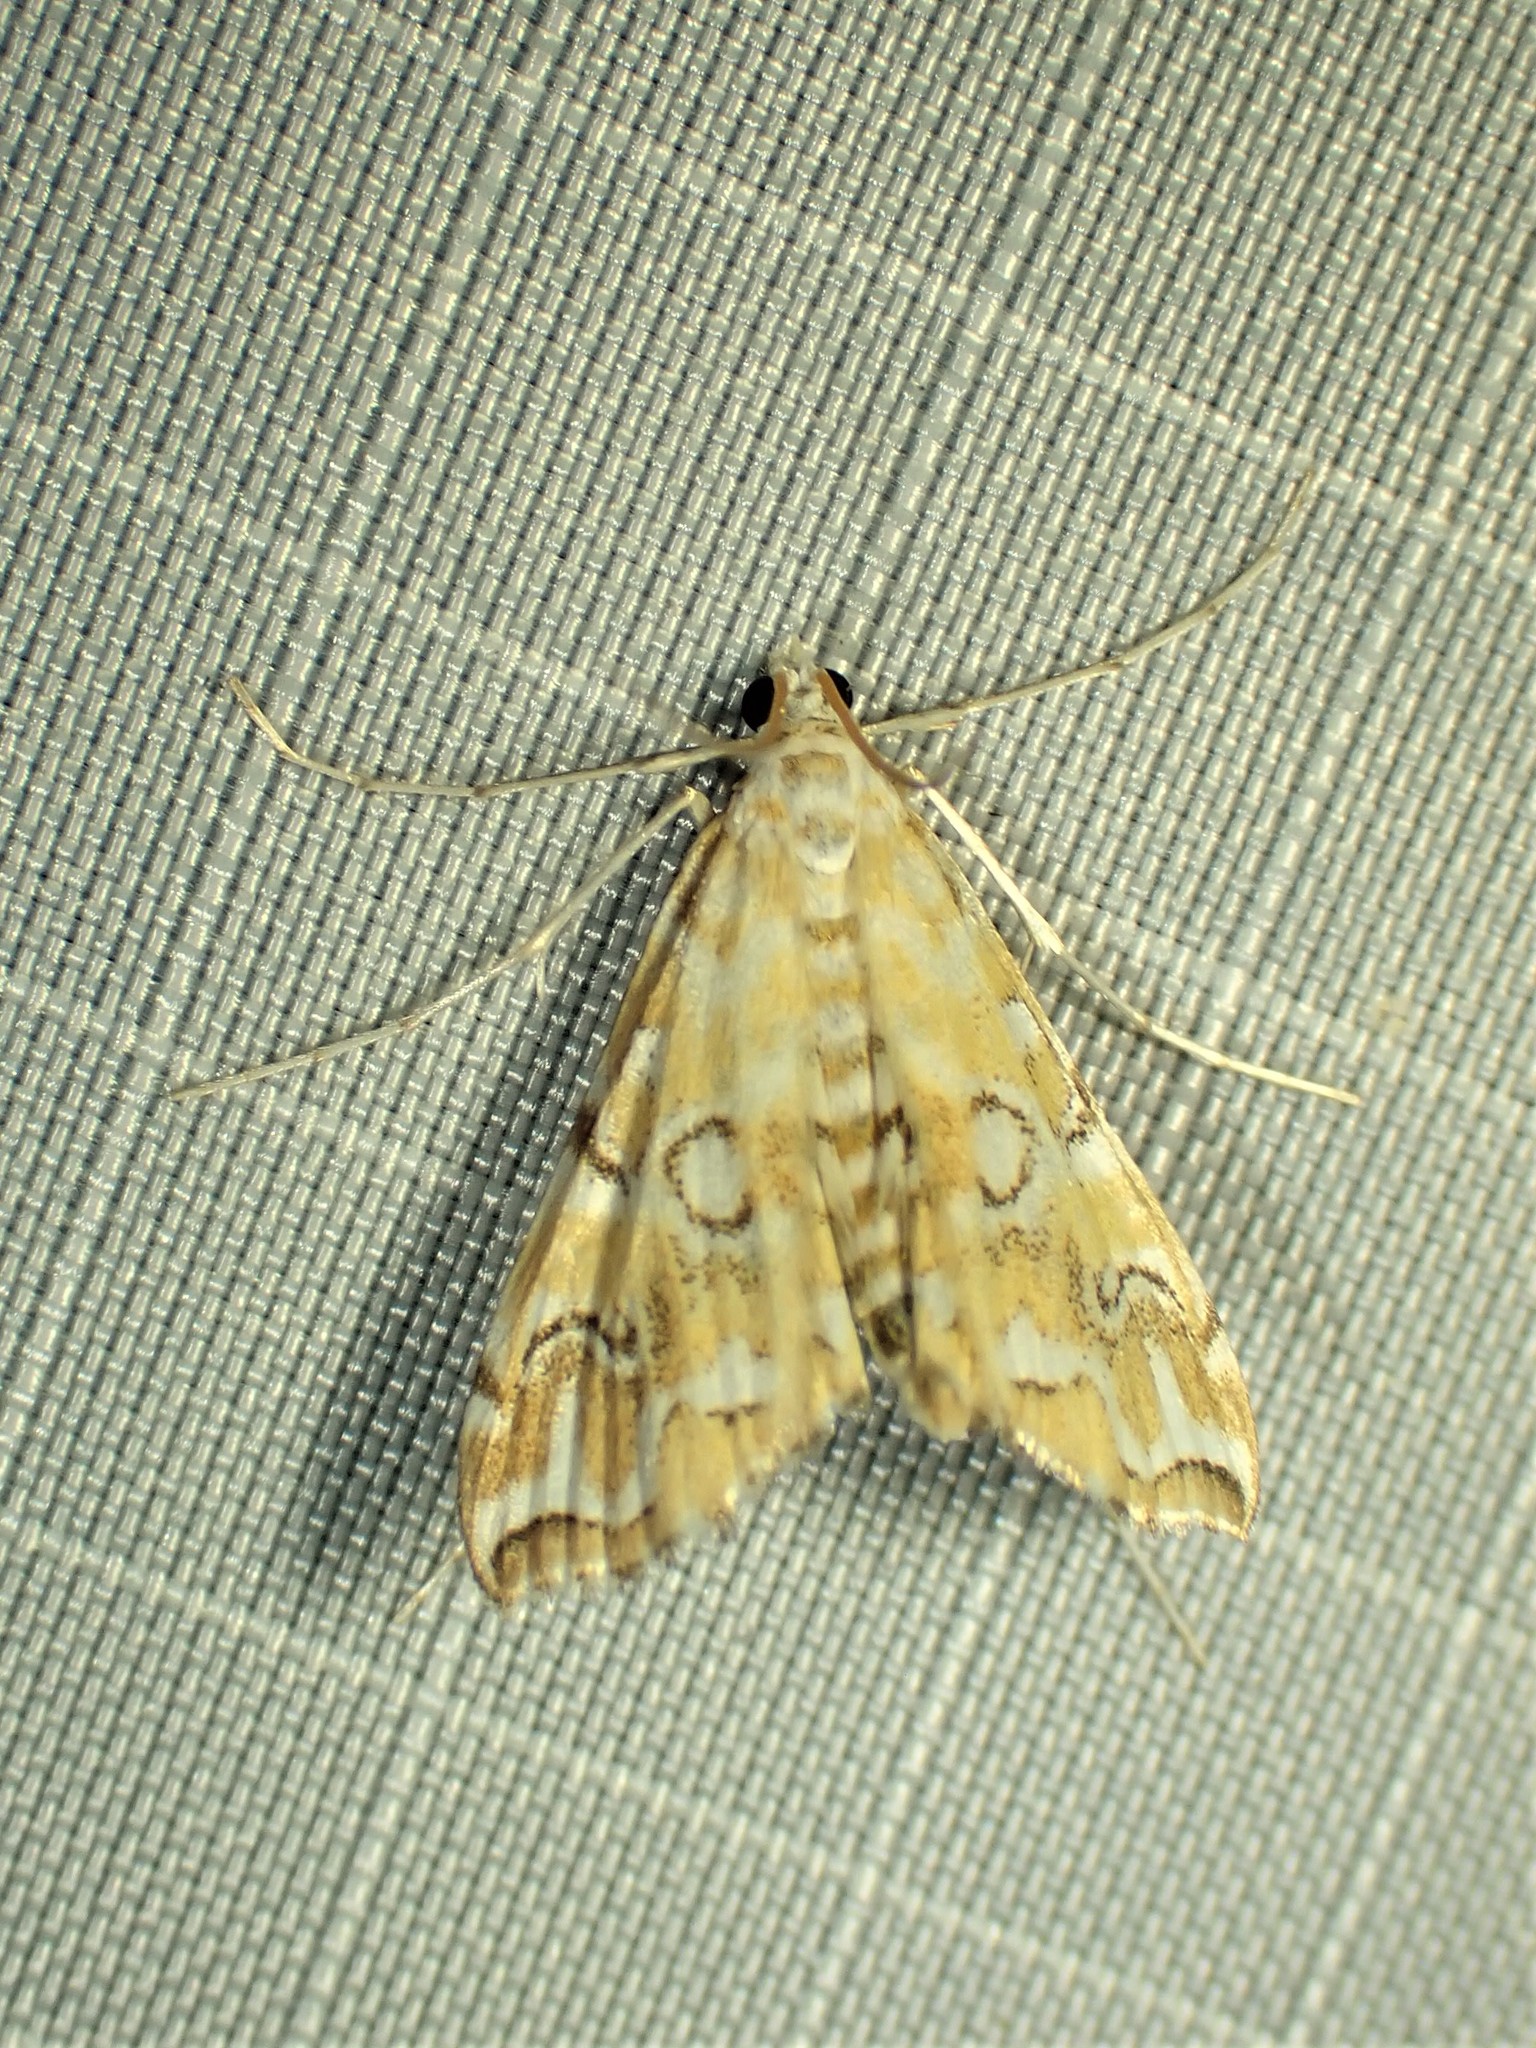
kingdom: Animalia
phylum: Arthropoda
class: Insecta
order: Lepidoptera
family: Crambidae
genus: Elophila
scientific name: Elophila icciusalis
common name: Pondside pyralid moth
